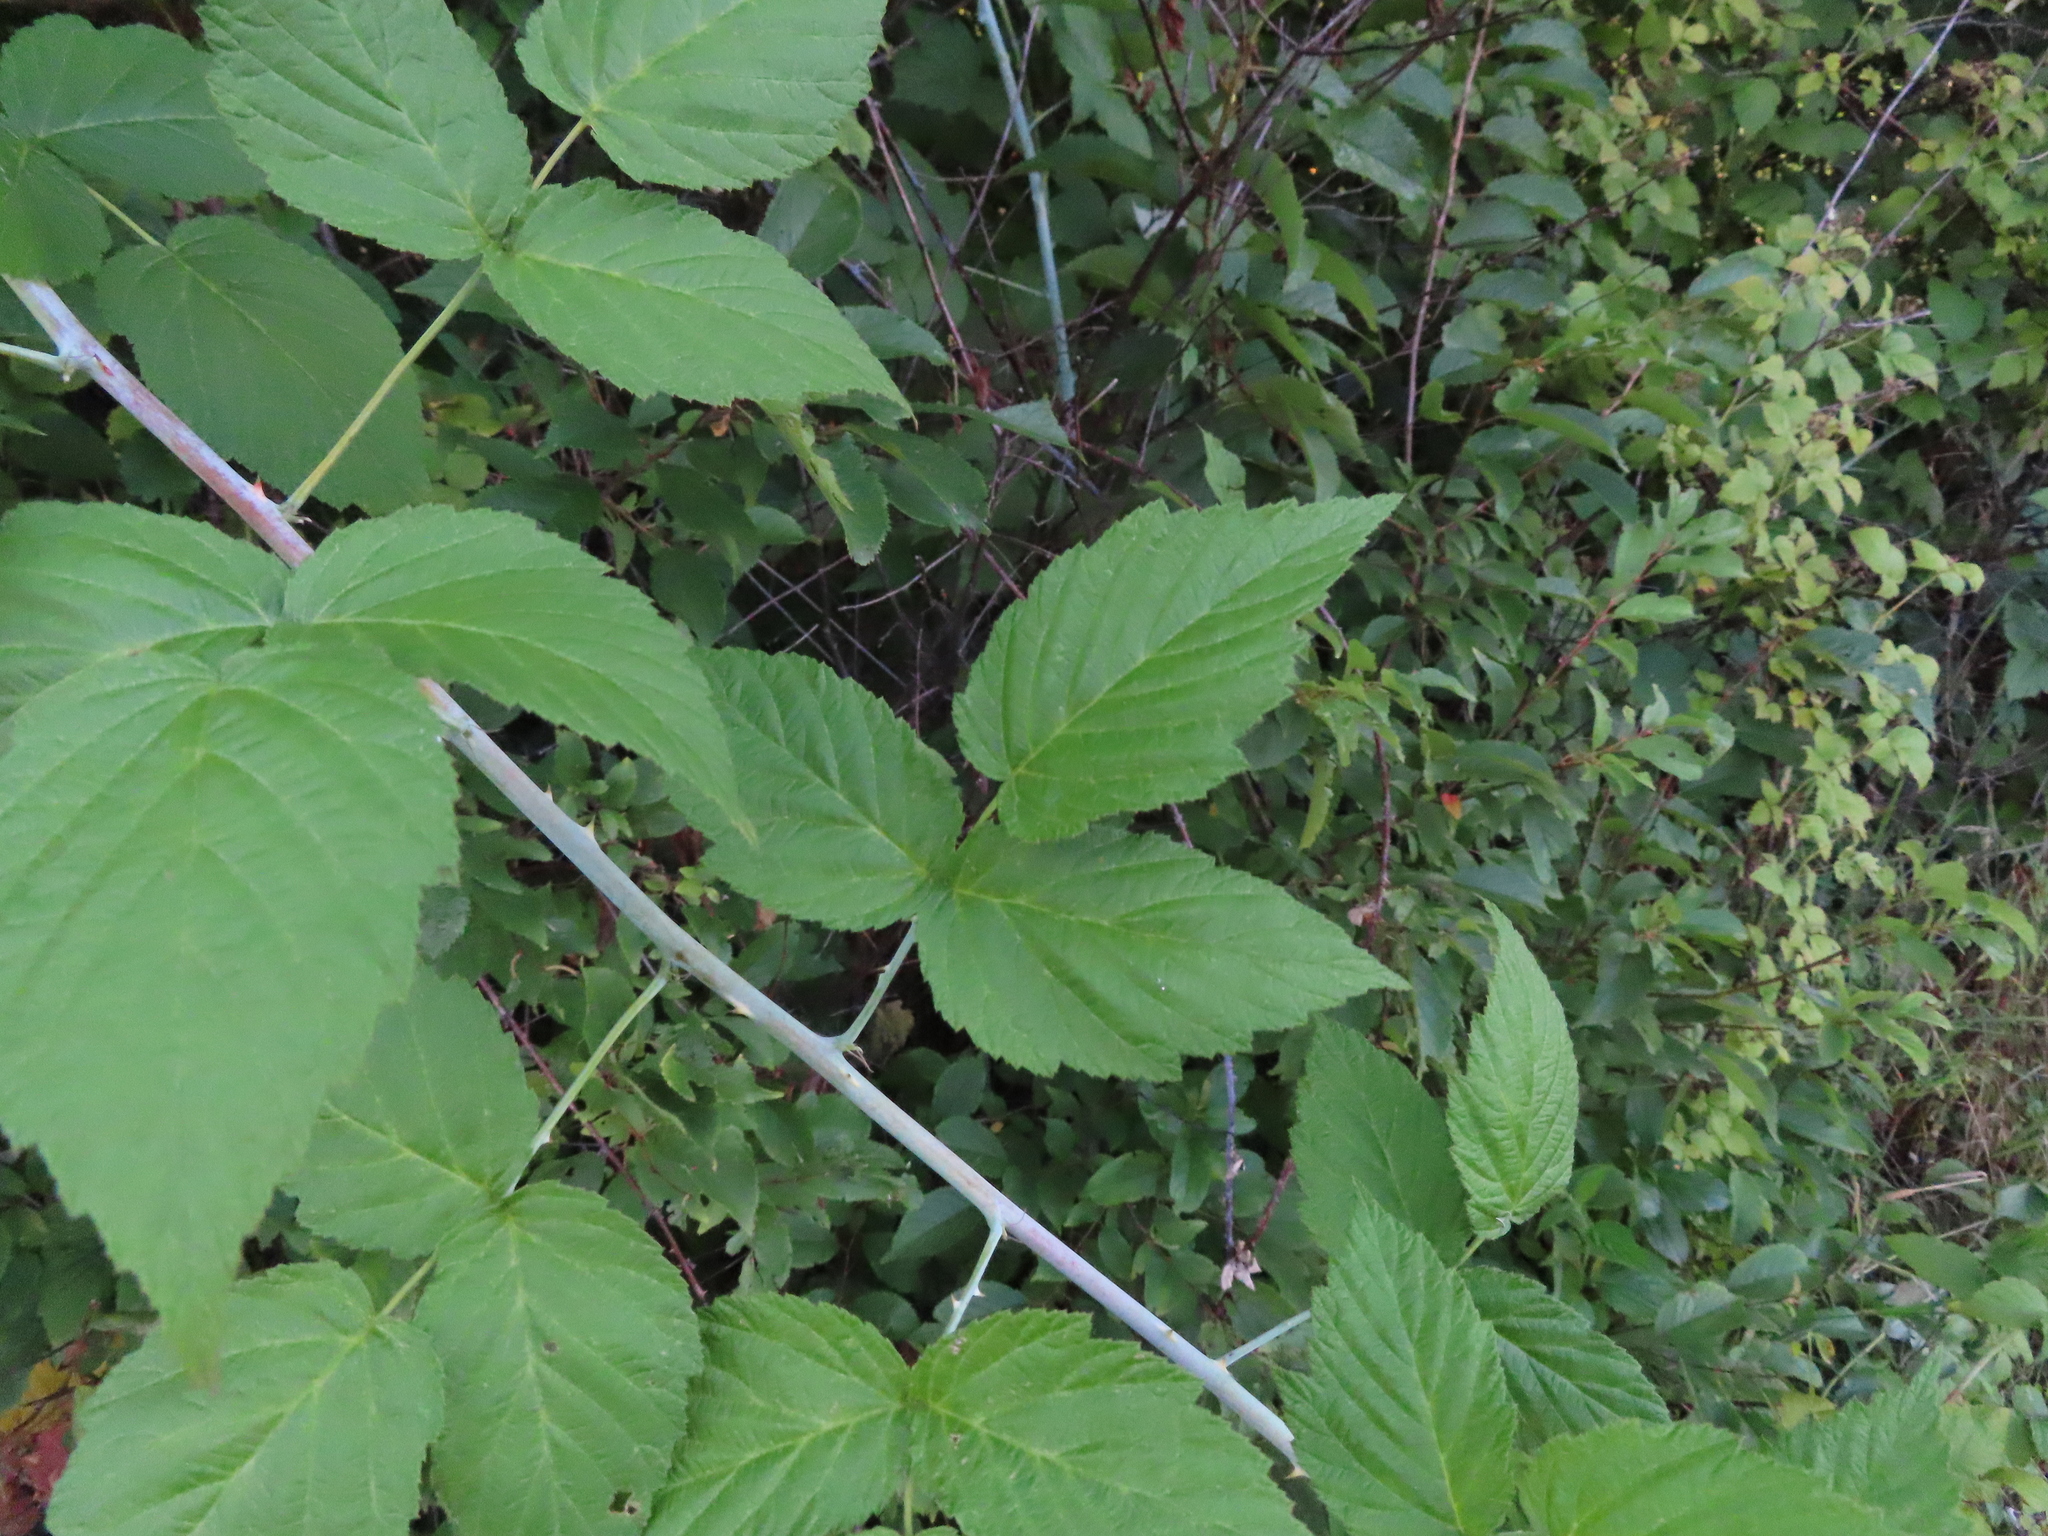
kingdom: Plantae
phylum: Tracheophyta
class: Magnoliopsida
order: Rosales
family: Rosaceae
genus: Rubus
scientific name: Rubus occidentalis
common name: Black raspberry
